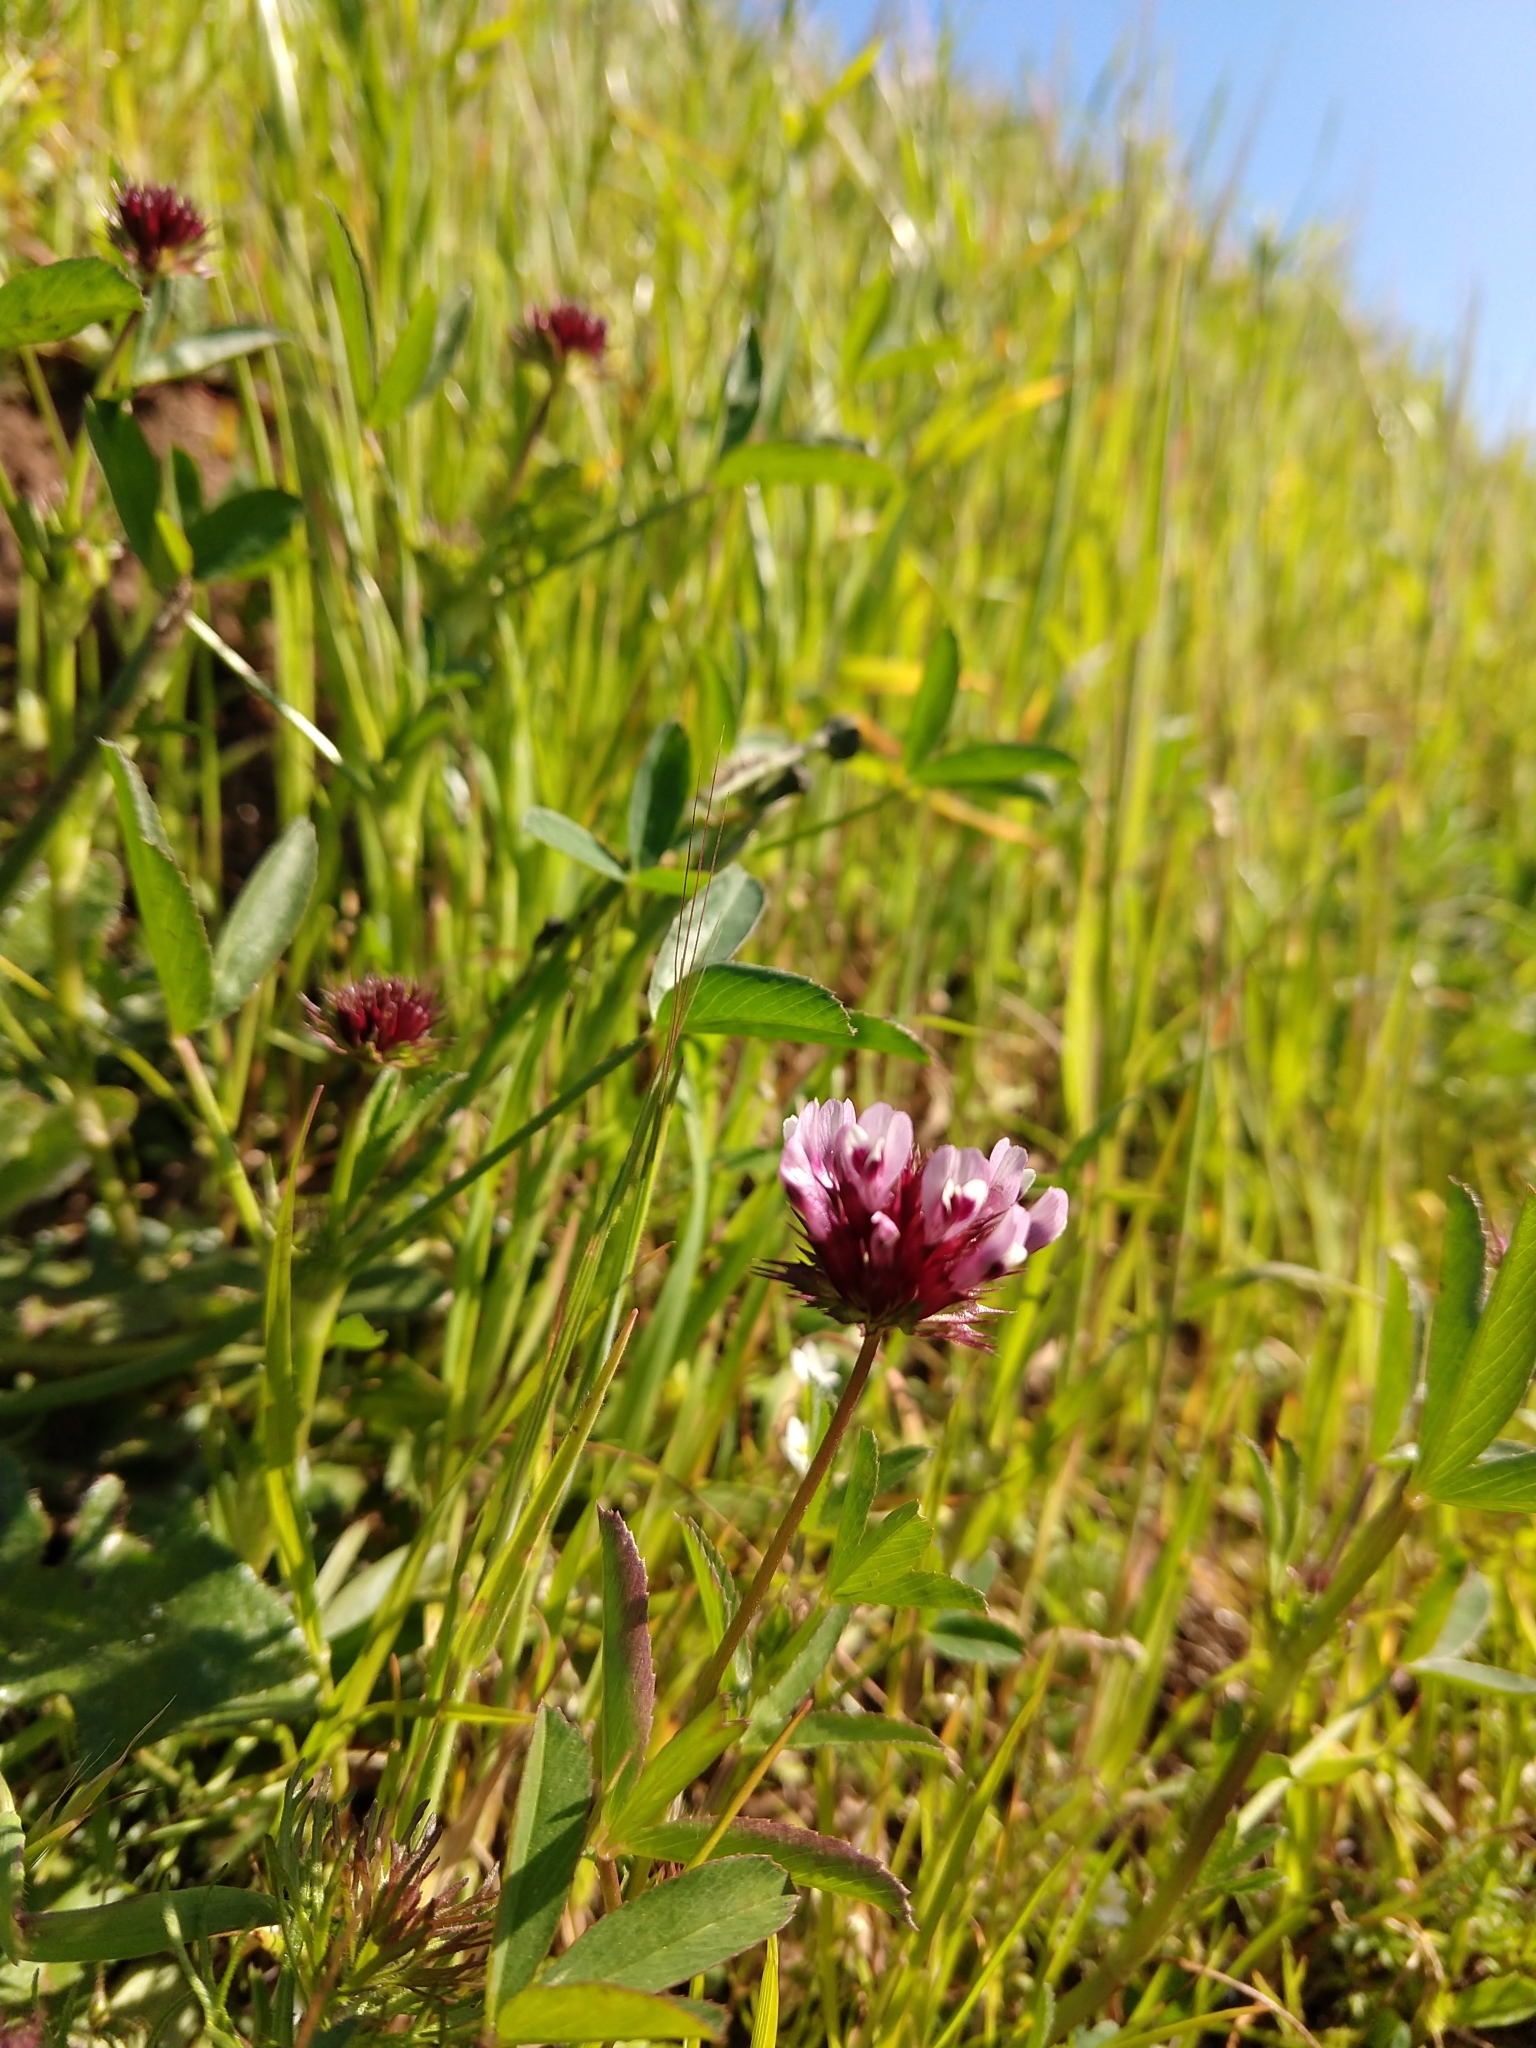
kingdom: Plantae
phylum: Tracheophyta
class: Magnoliopsida
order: Fabales
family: Fabaceae
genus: Trifolium
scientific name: Trifolium willdenovii
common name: Tomcat clover
